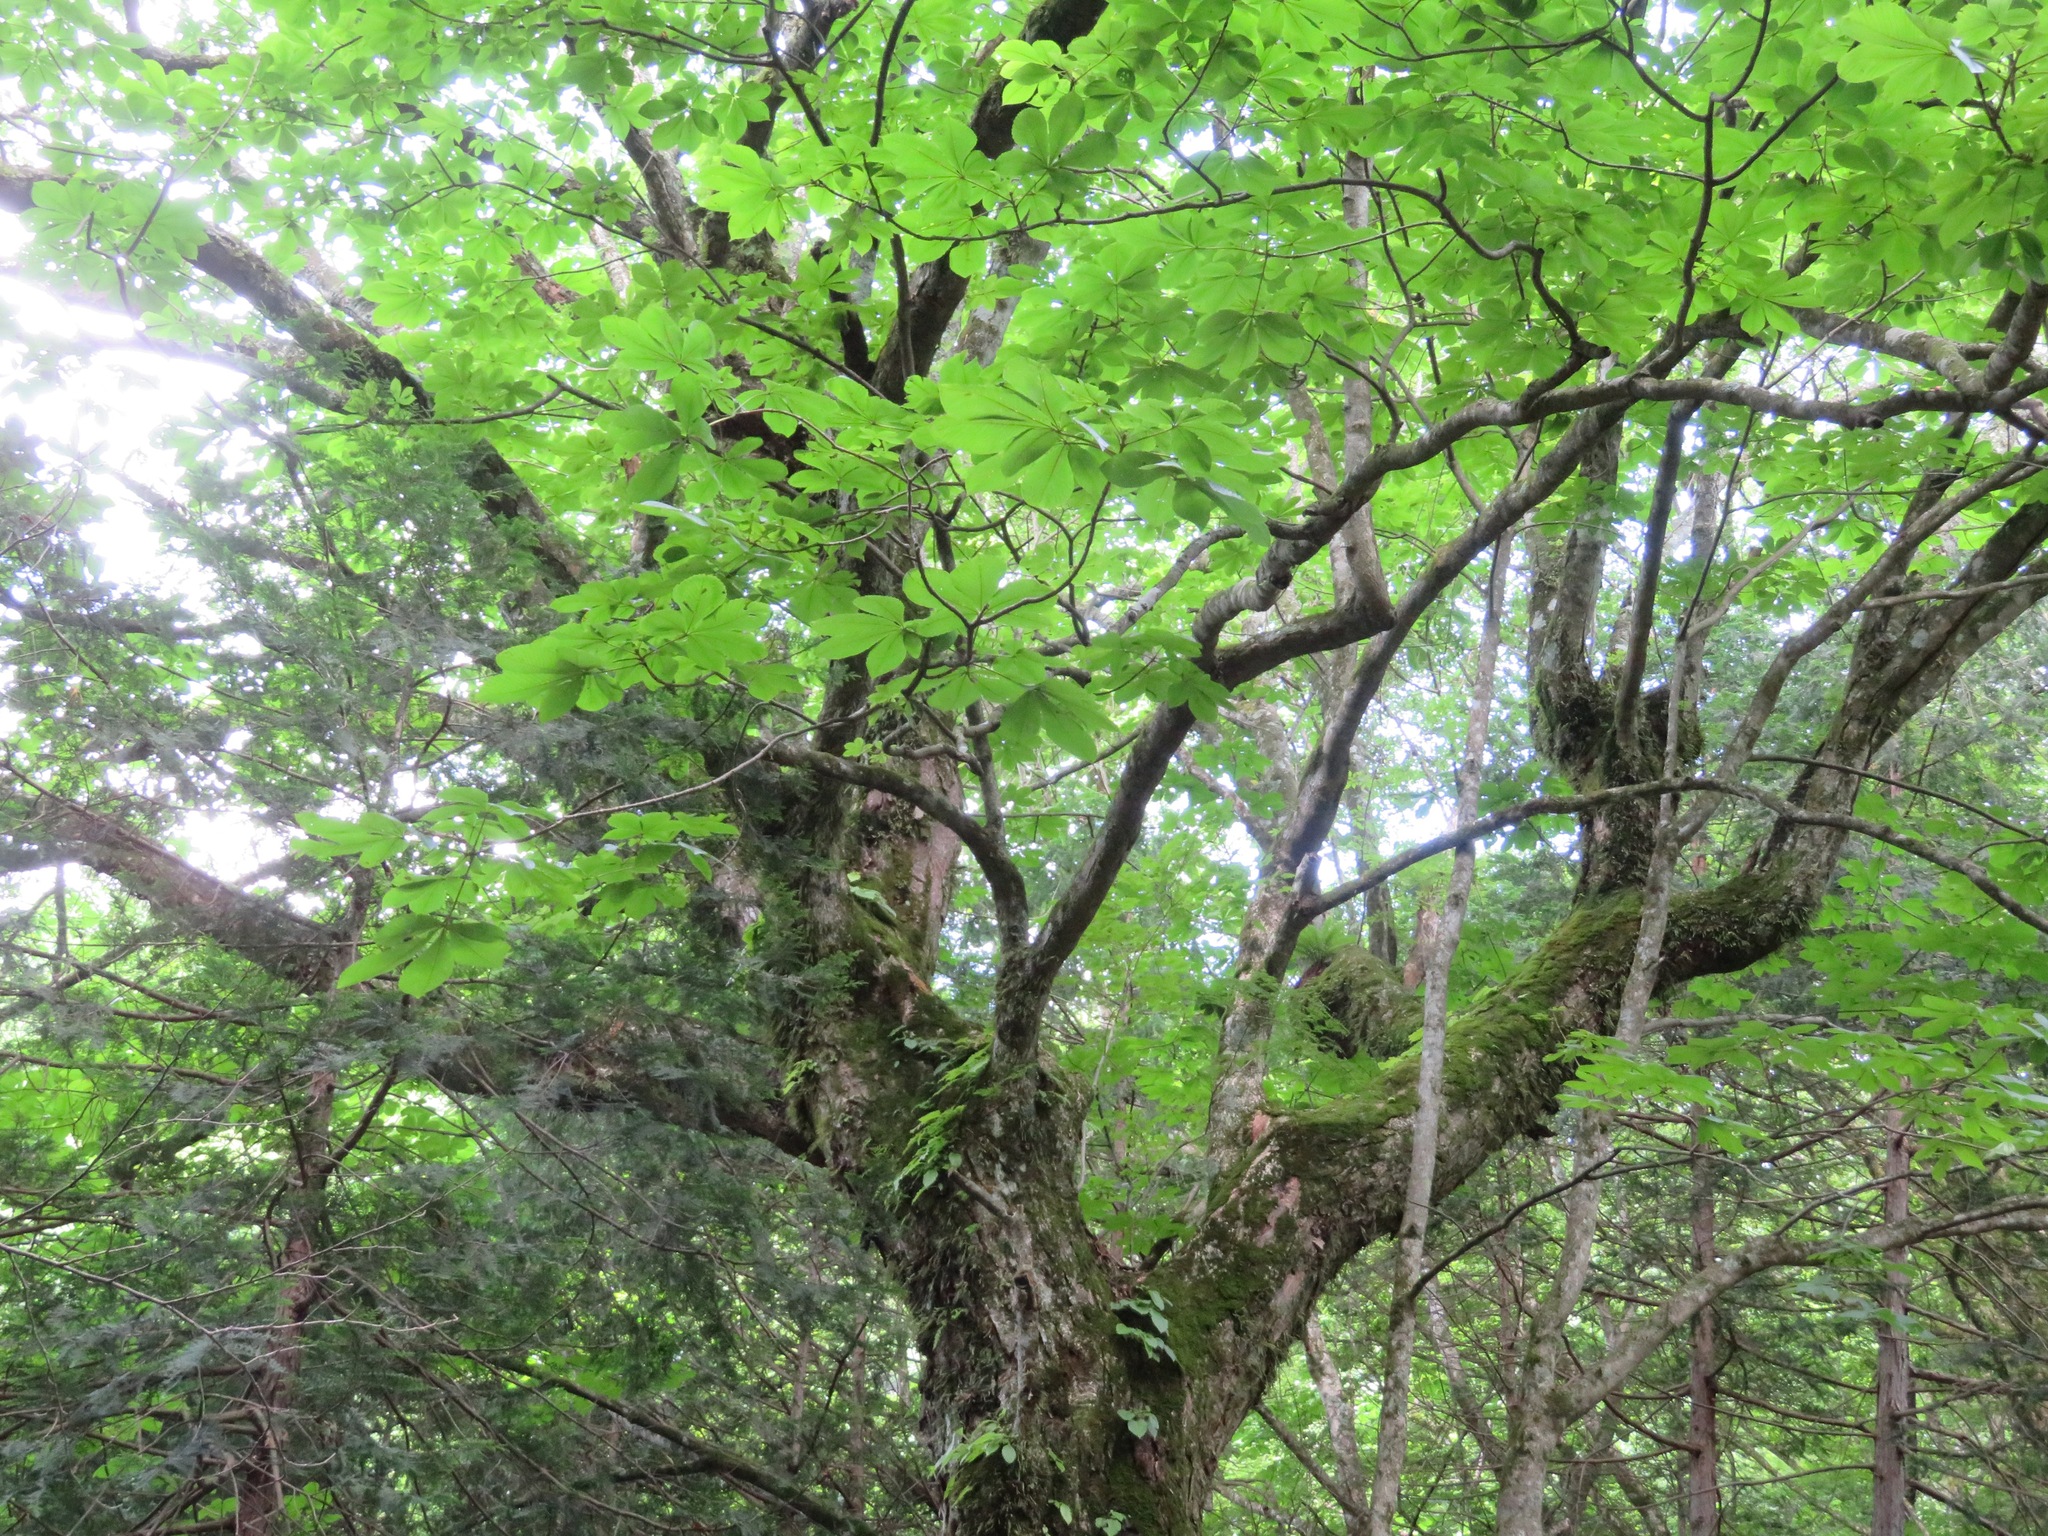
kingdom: Plantae
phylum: Tracheophyta
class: Magnoliopsida
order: Sapindales
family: Sapindaceae
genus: Aesculus
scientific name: Aesculus turbinata
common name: Japanese horse-chestnut
